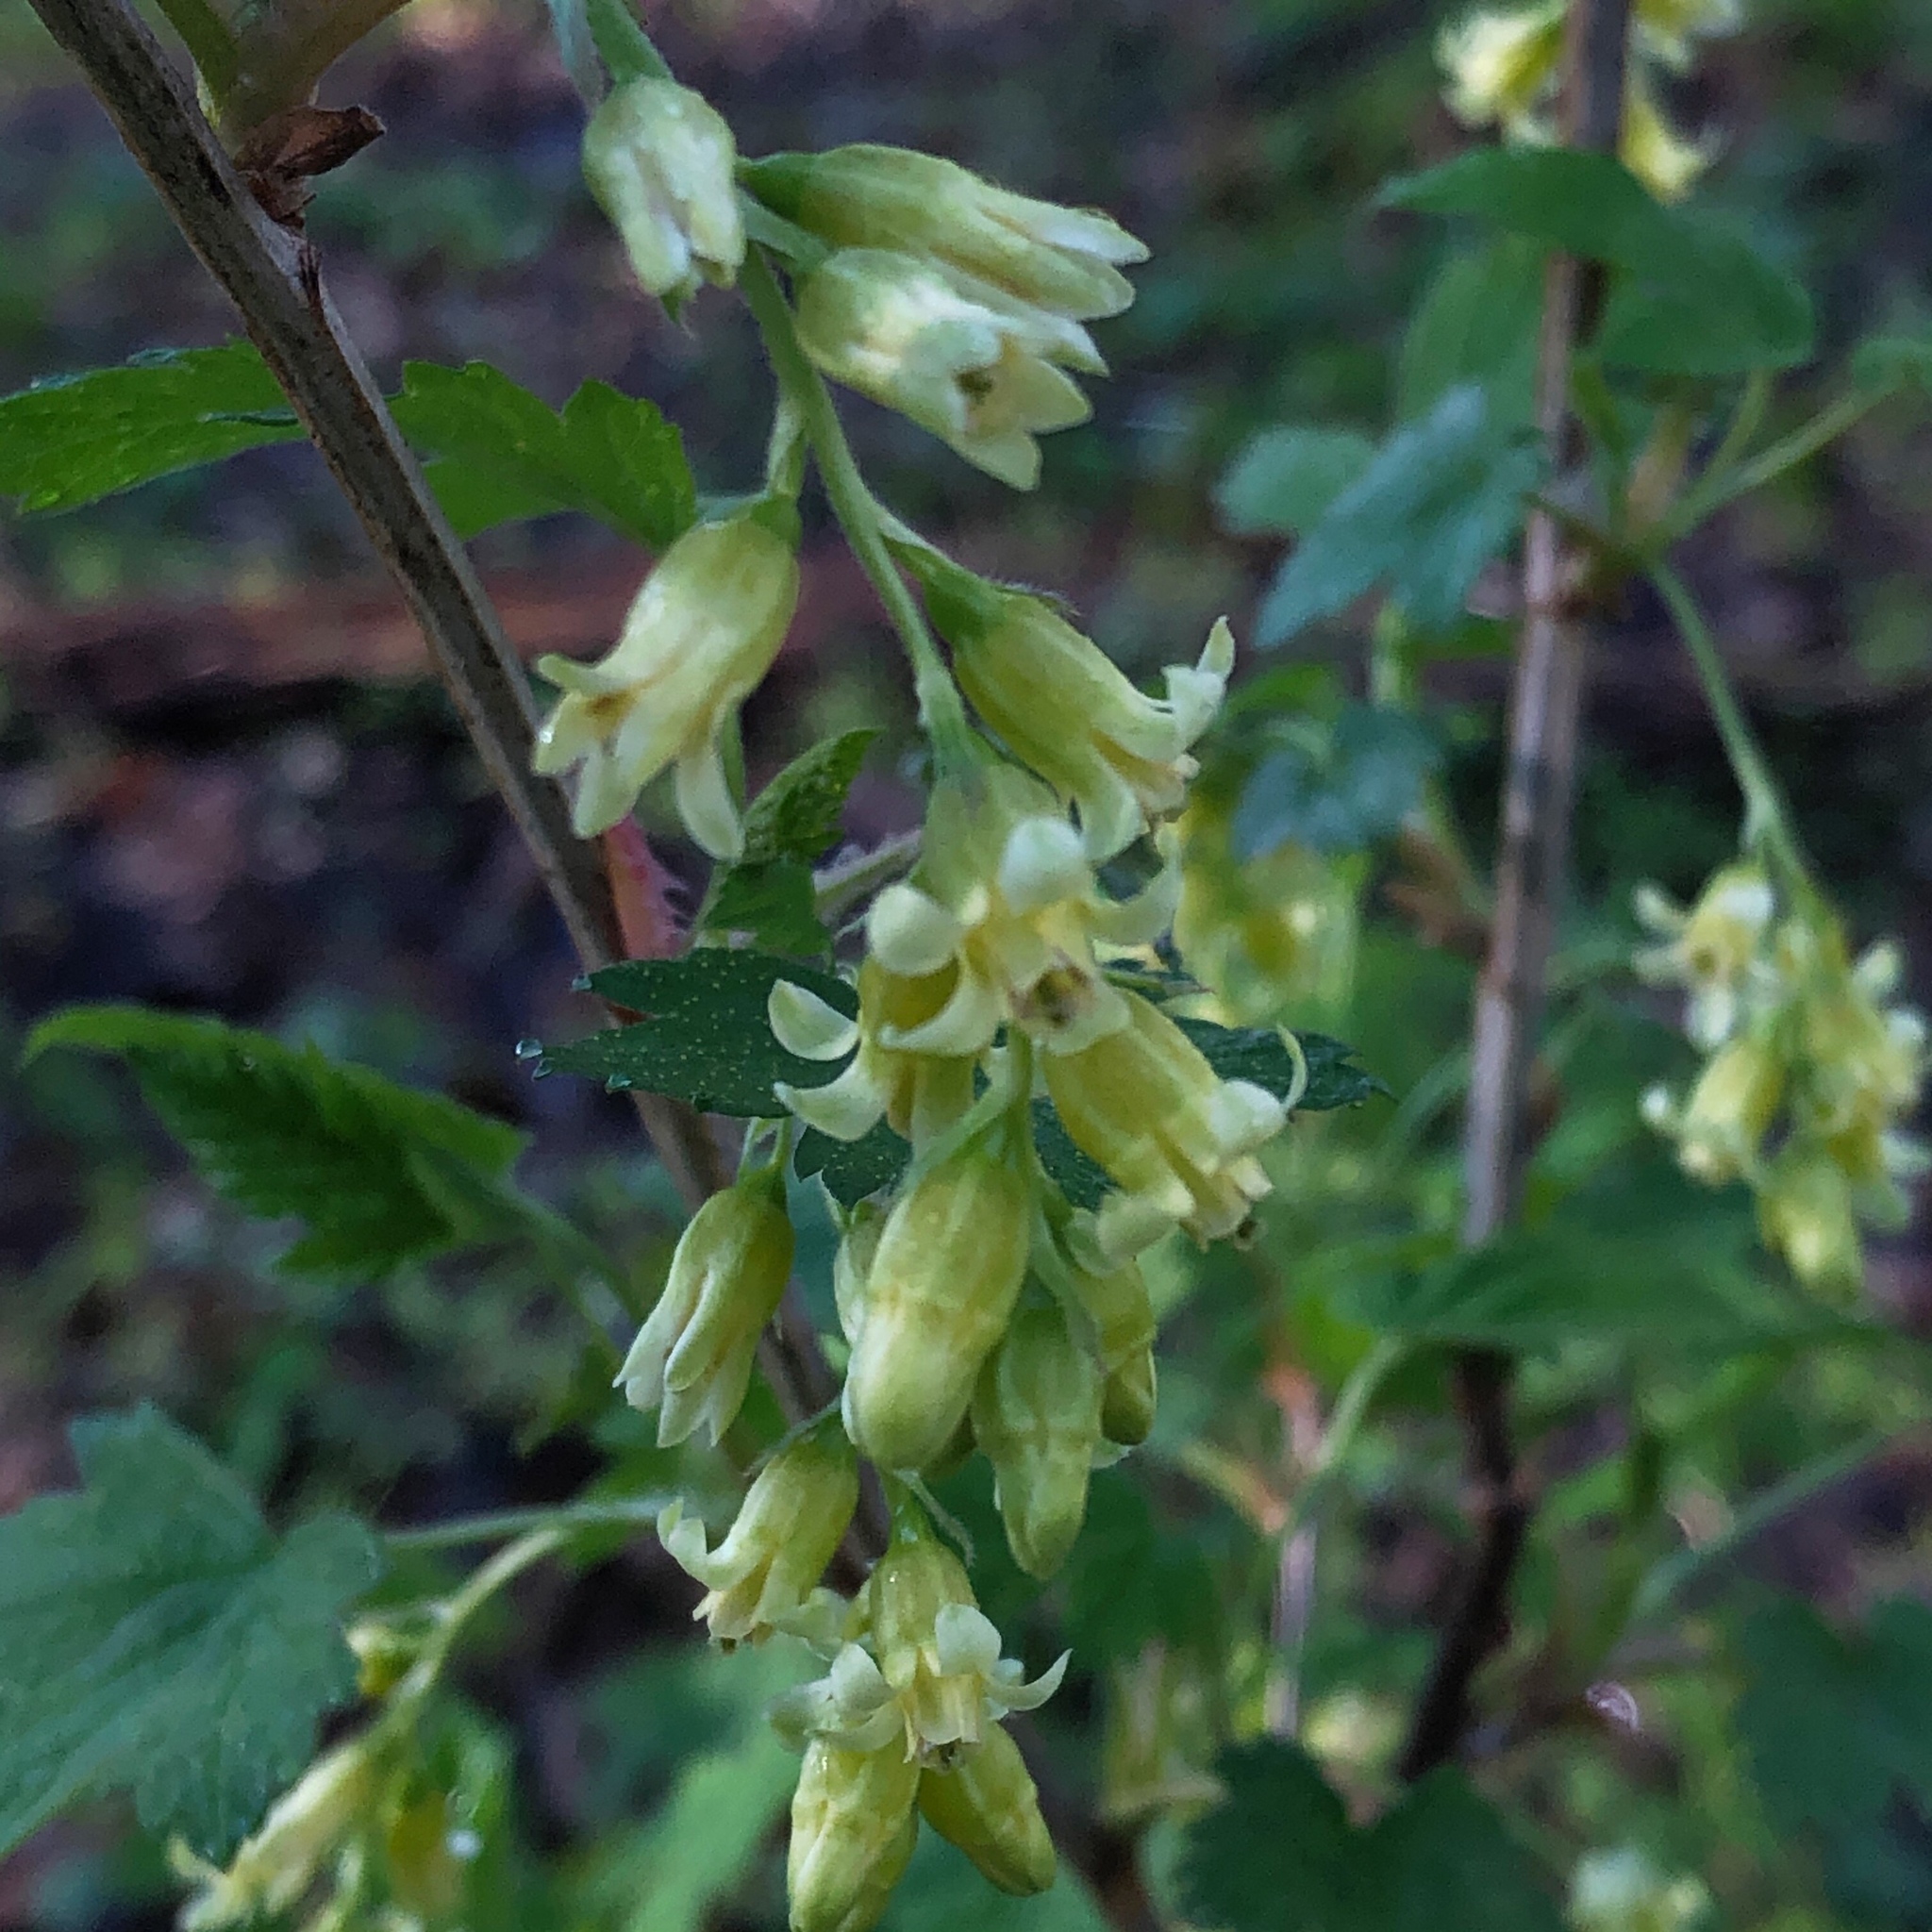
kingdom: Plantae
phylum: Tracheophyta
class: Magnoliopsida
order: Saxifragales
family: Grossulariaceae
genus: Ribes
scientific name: Ribes americanum
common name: American black currant
